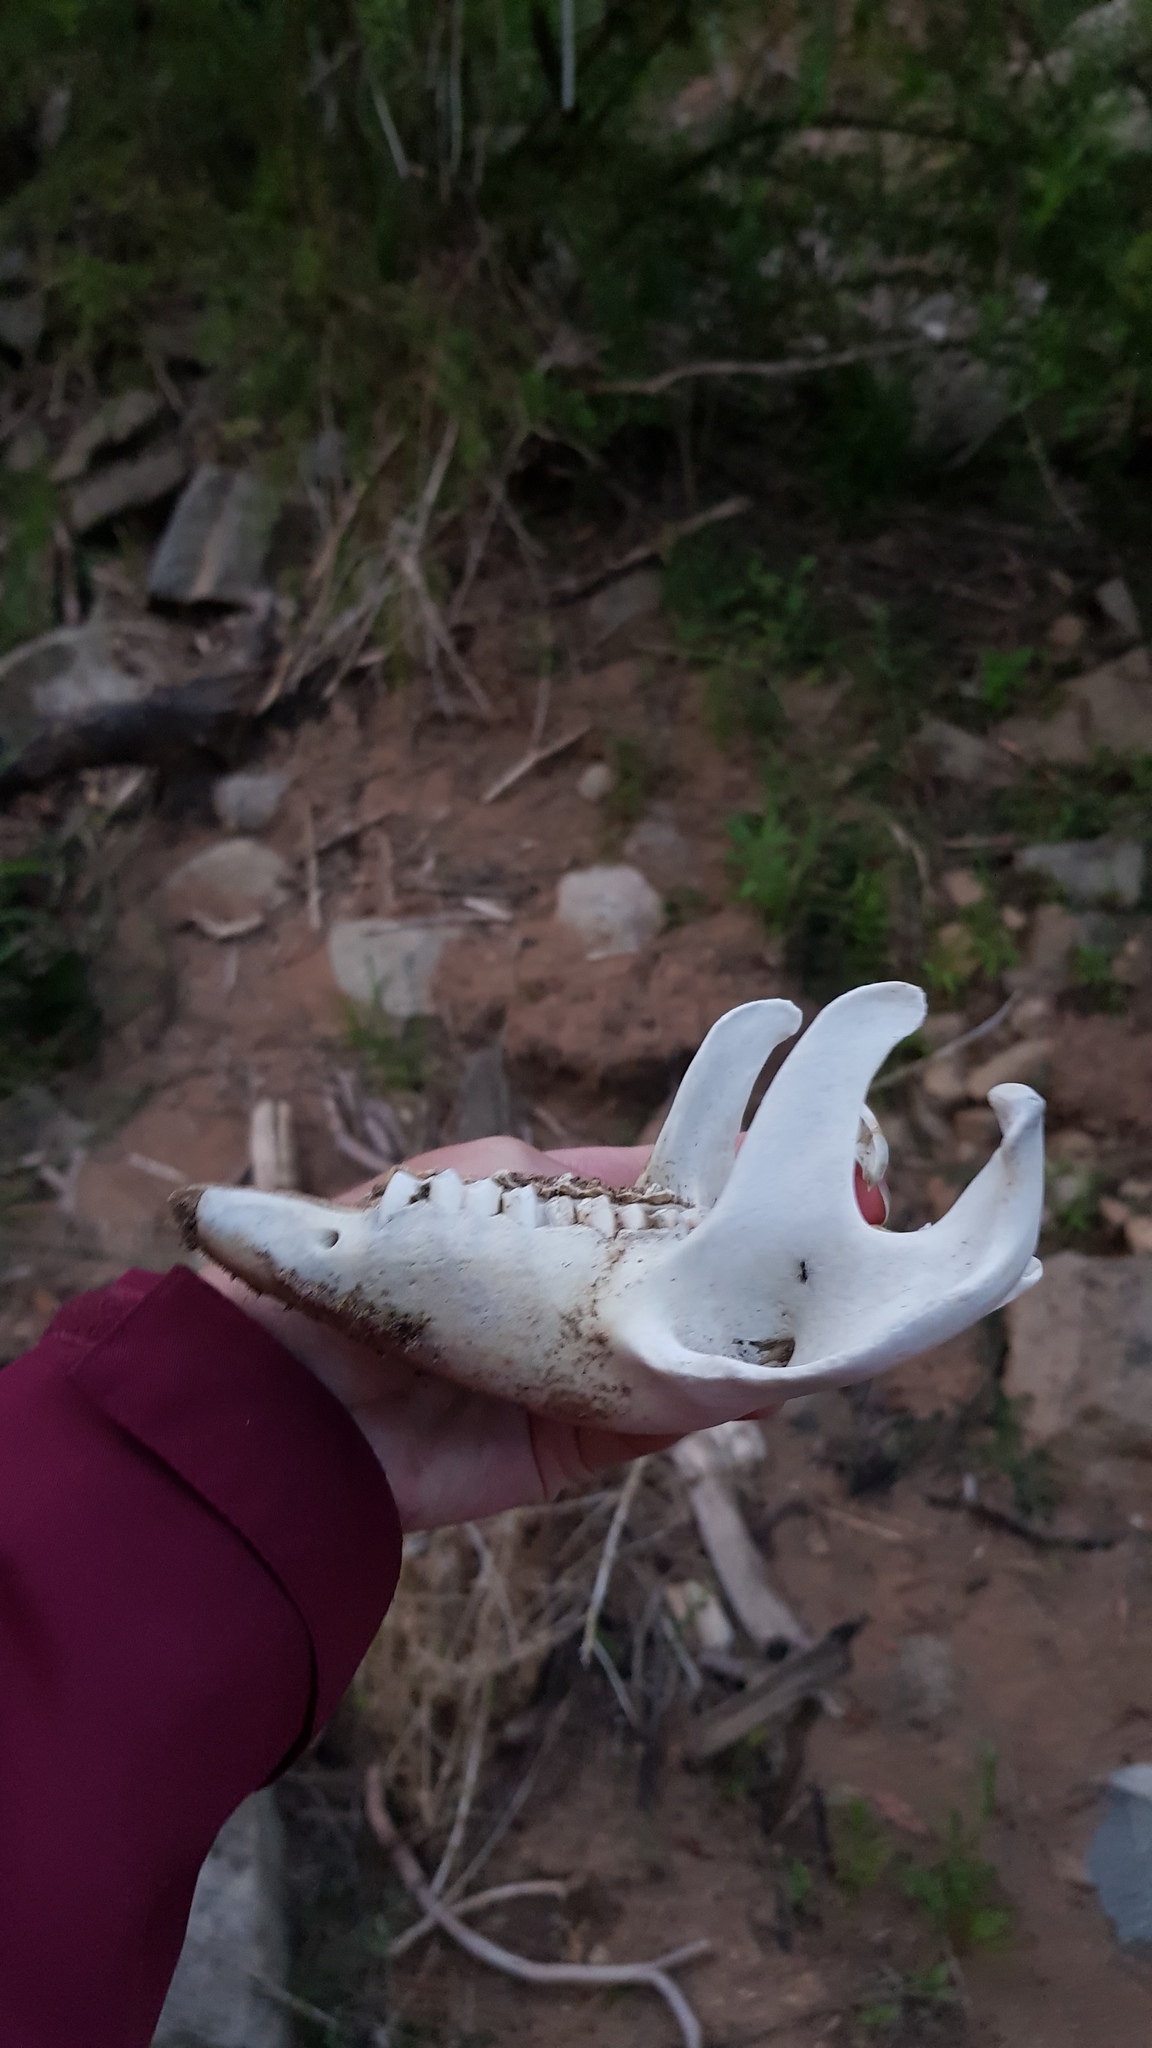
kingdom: Animalia
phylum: Chordata
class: Mammalia
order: Diprotodontia
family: Vombatidae
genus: Vombatus
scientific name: Vombatus ursinus
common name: Common wombat
